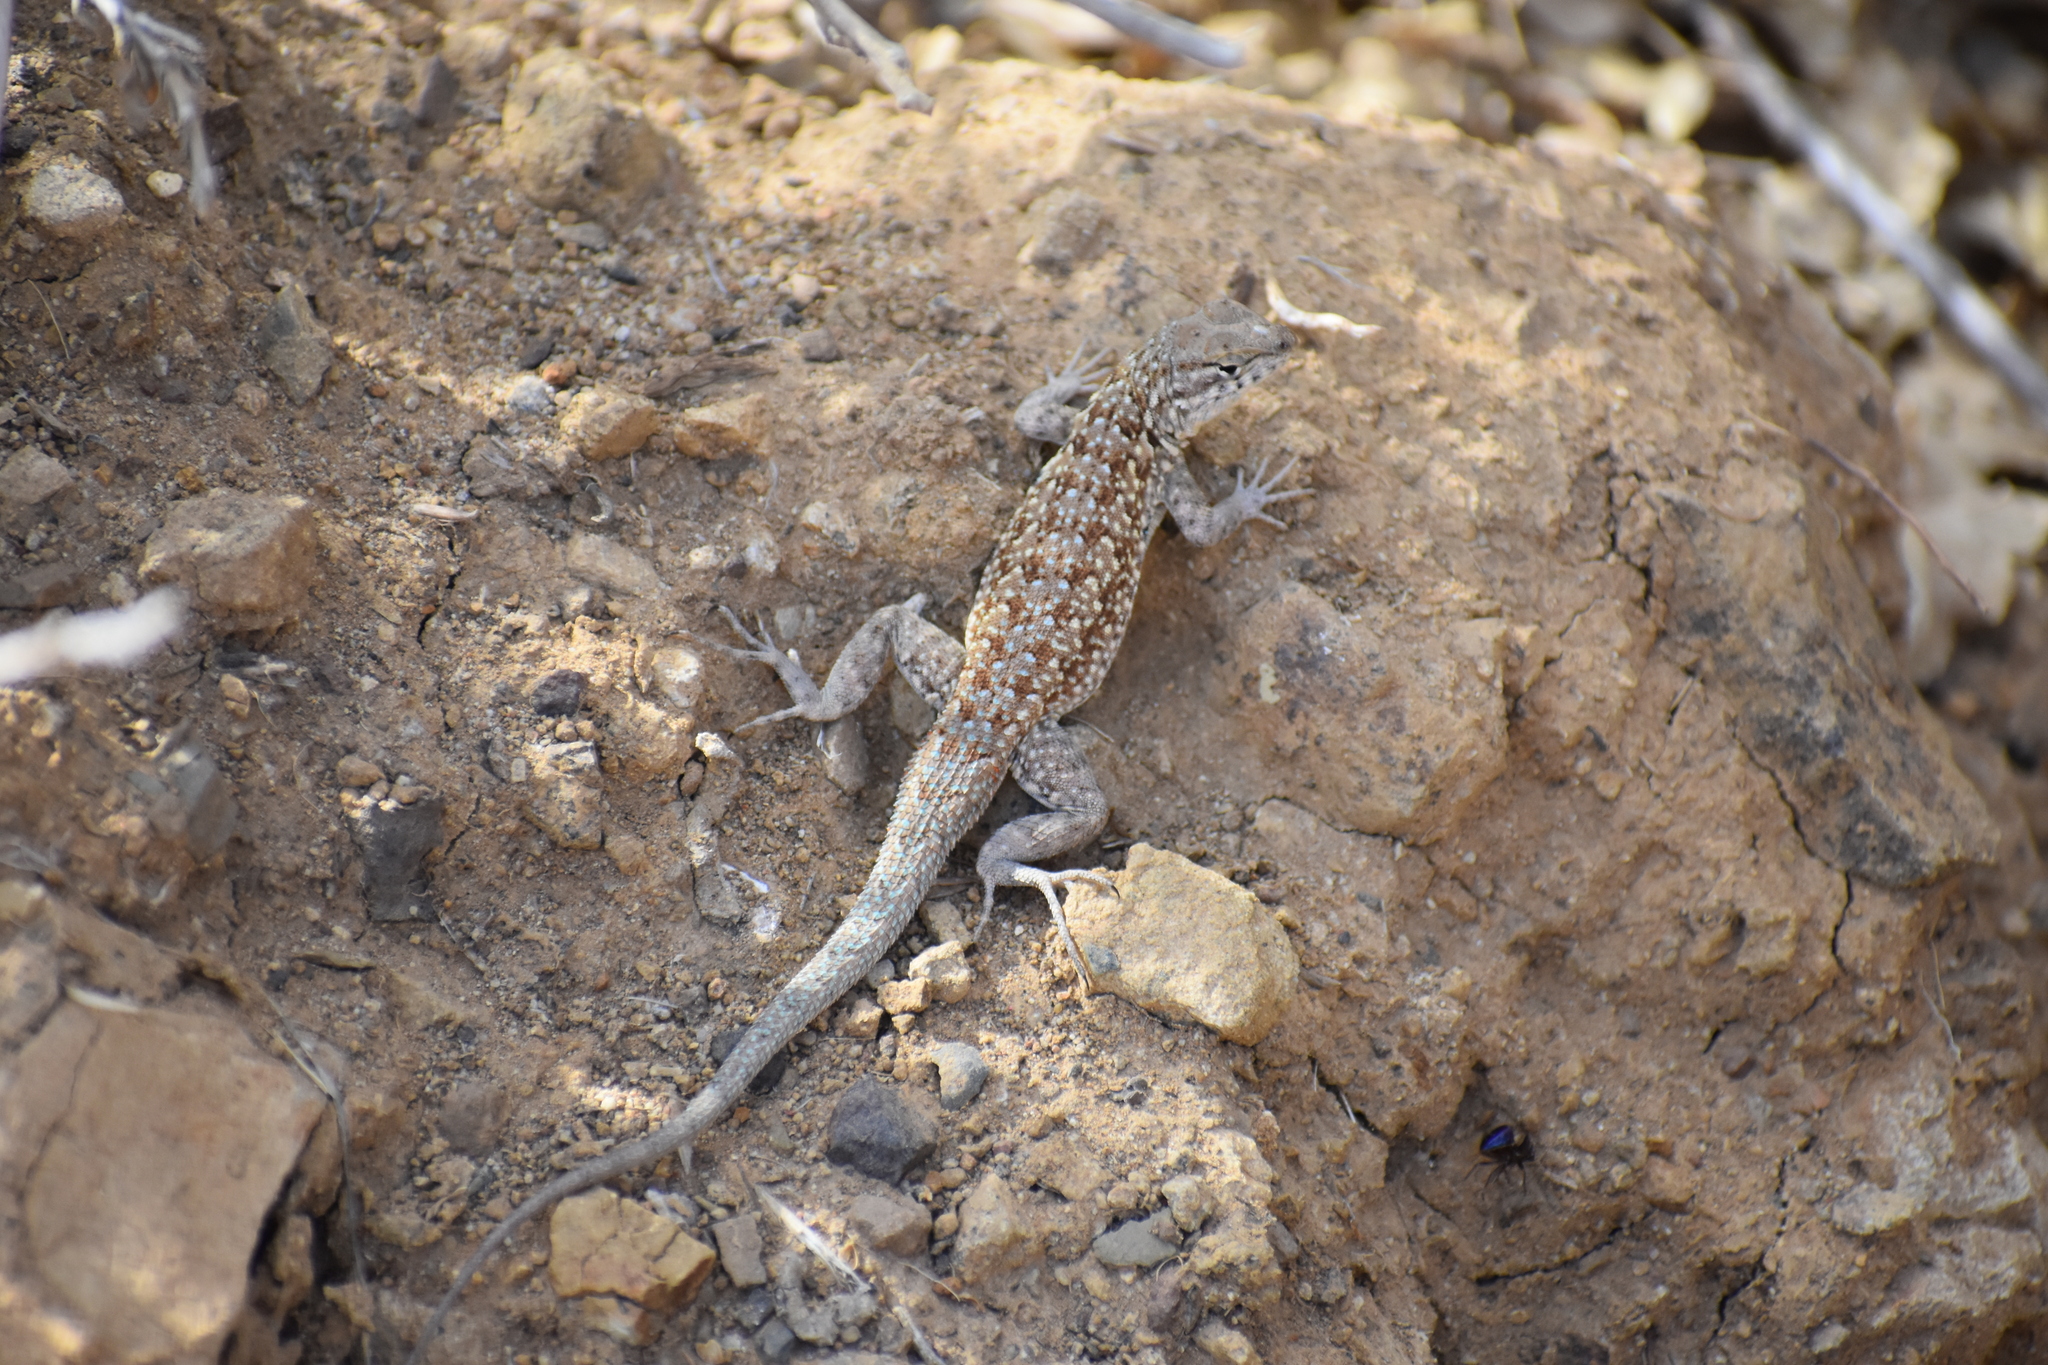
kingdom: Animalia
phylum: Chordata
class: Squamata
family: Phrynosomatidae
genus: Uta
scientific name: Uta stansburiana
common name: Side-blotched lizard
